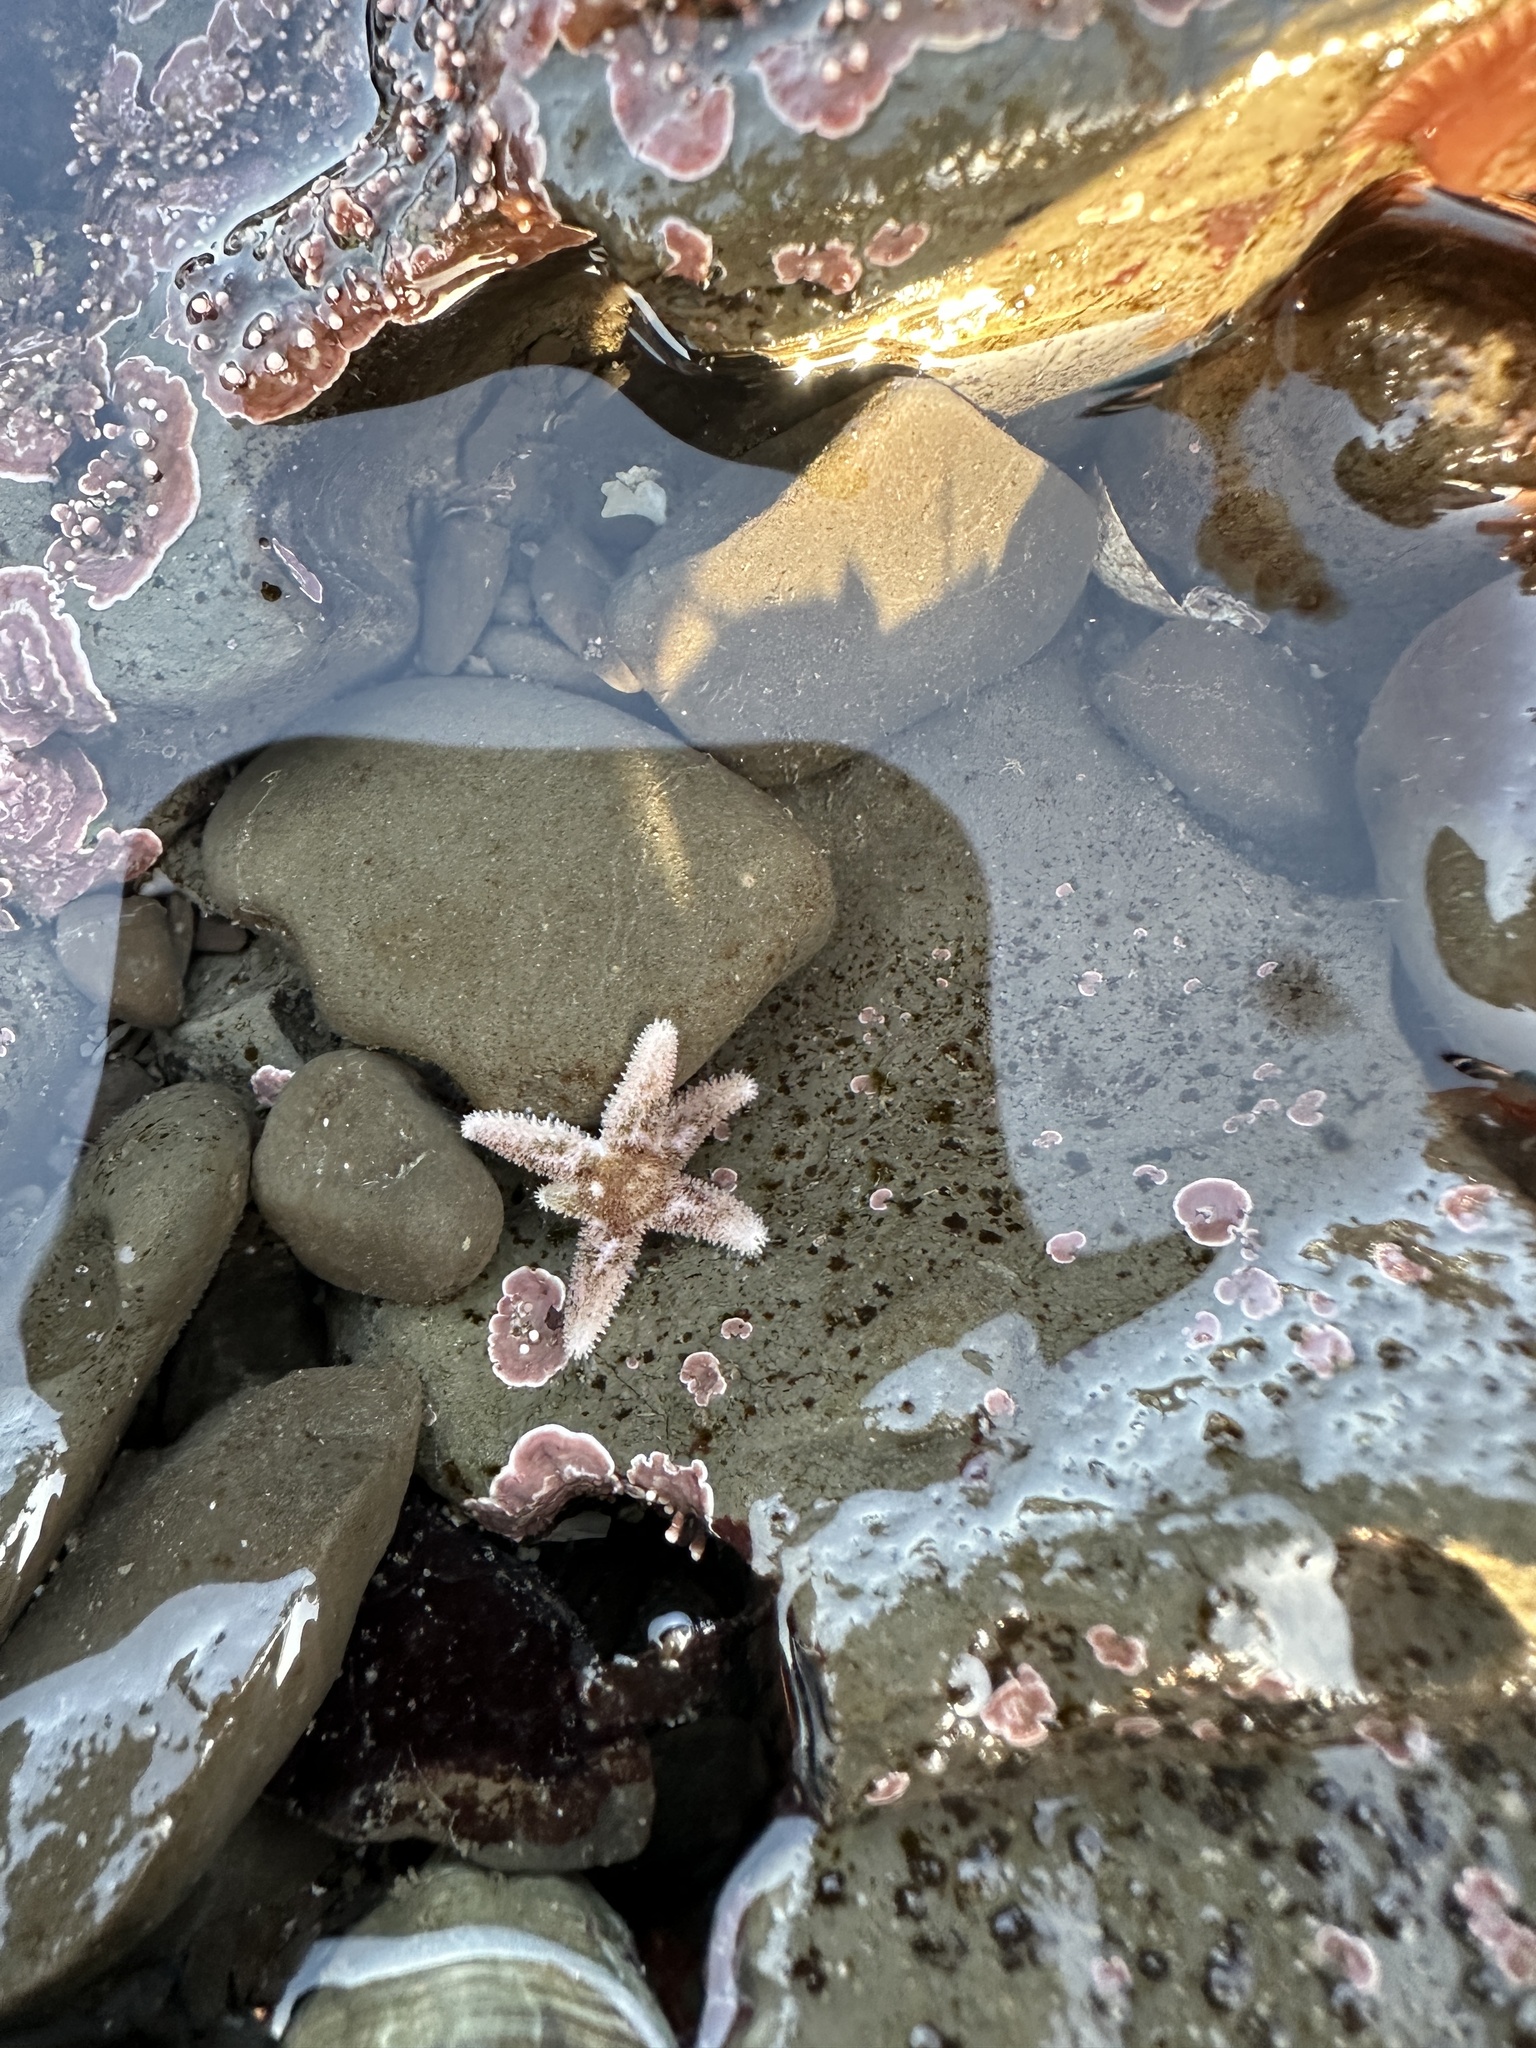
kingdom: Animalia
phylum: Echinodermata
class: Asteroidea
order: Forcipulatida
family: Asteriidae
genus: Leptasterias
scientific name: Leptasterias hexactis
